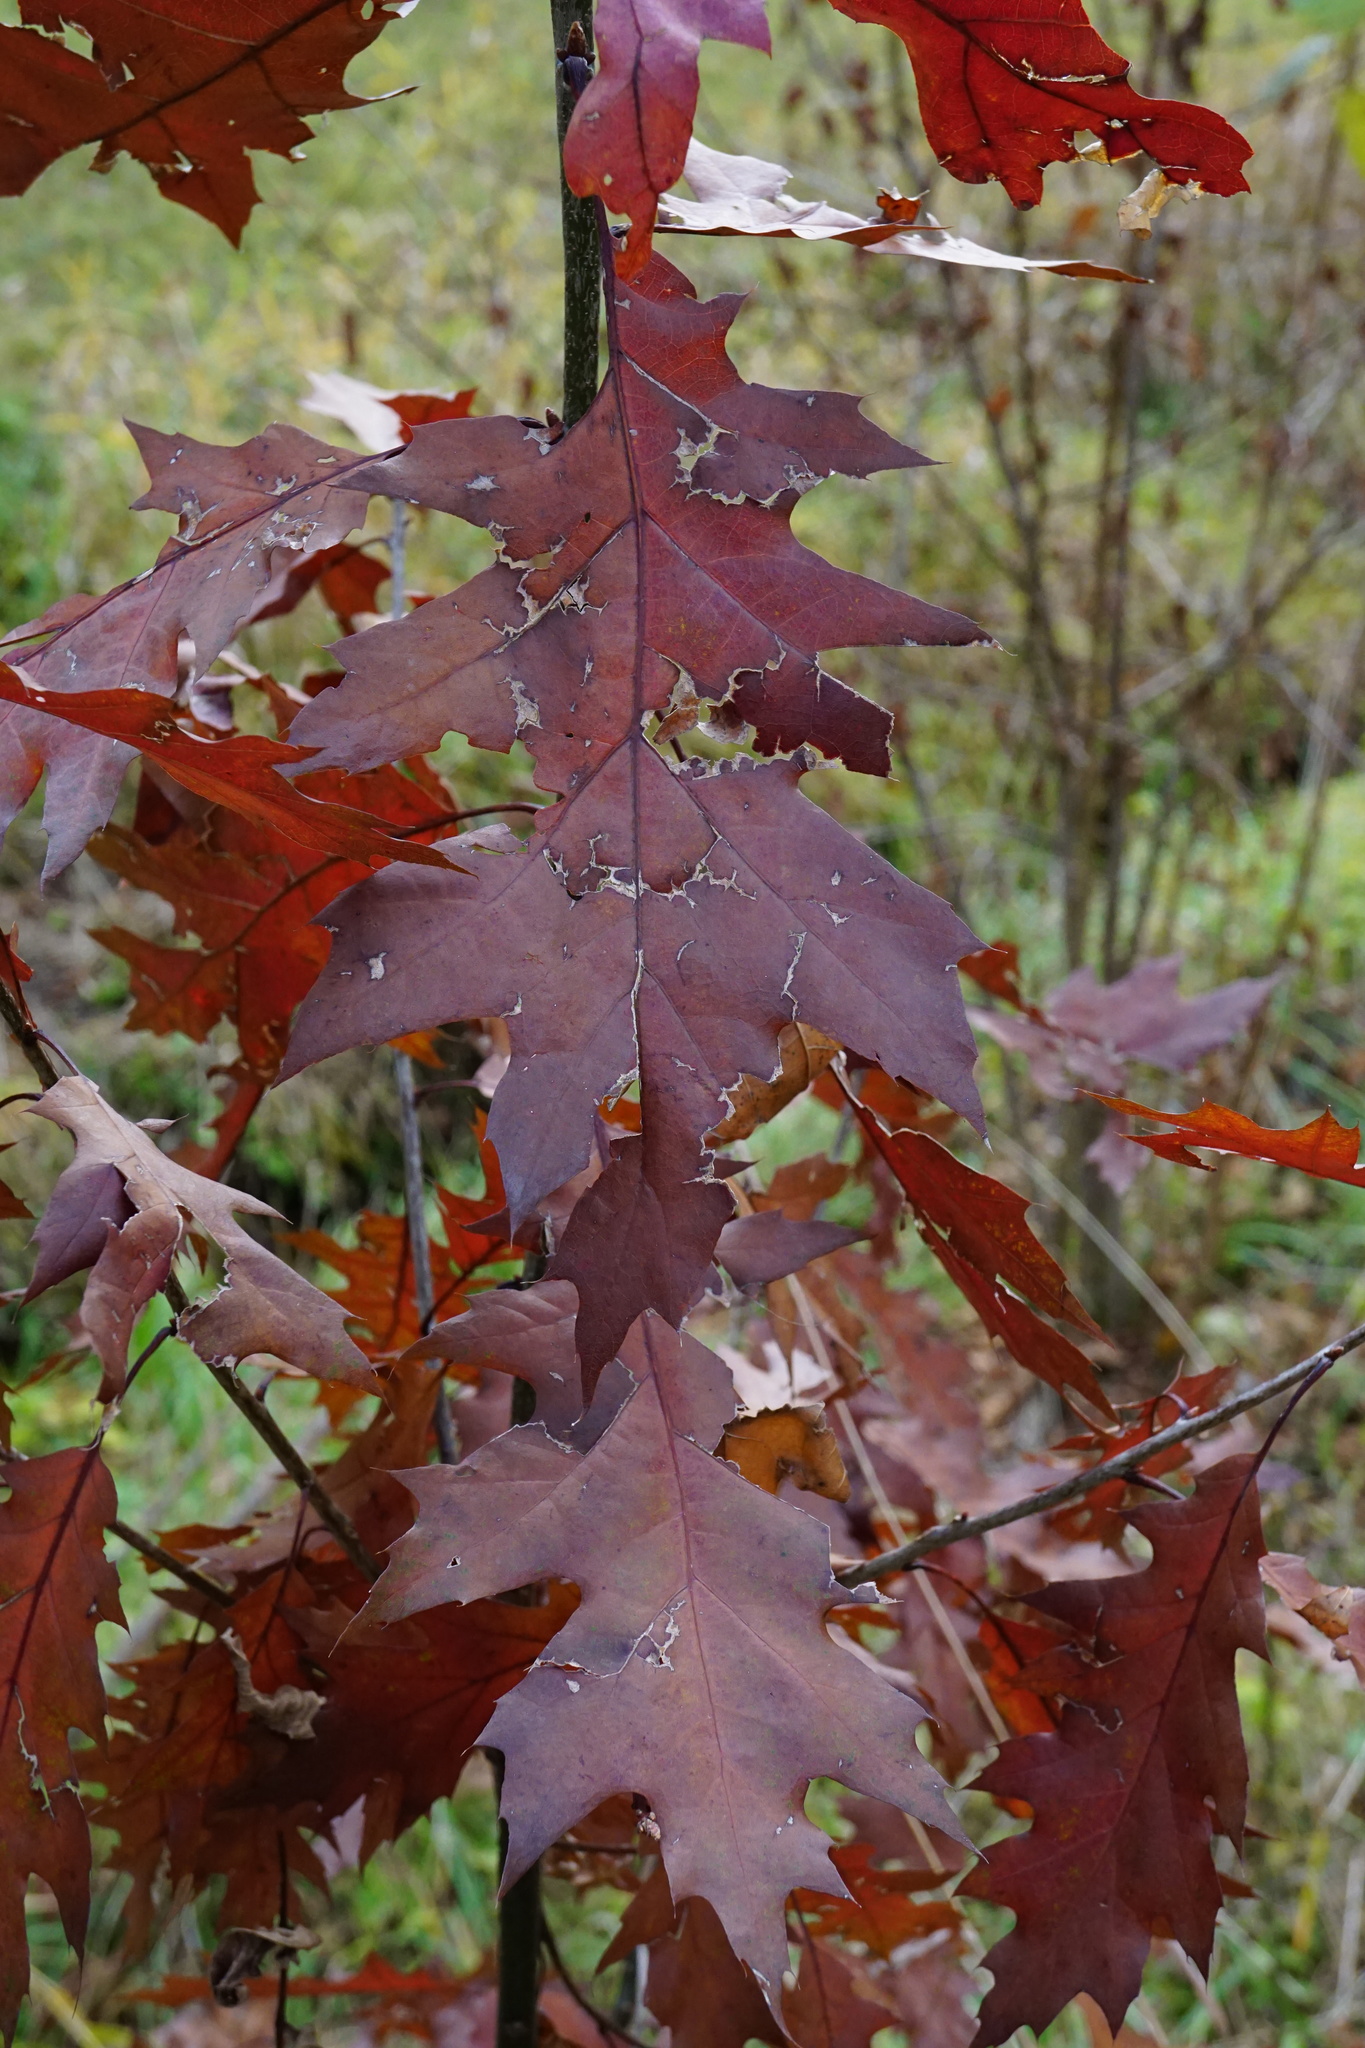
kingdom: Plantae
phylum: Tracheophyta
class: Magnoliopsida
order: Fagales
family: Fagaceae
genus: Quercus
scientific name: Quercus rubra
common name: Red oak
